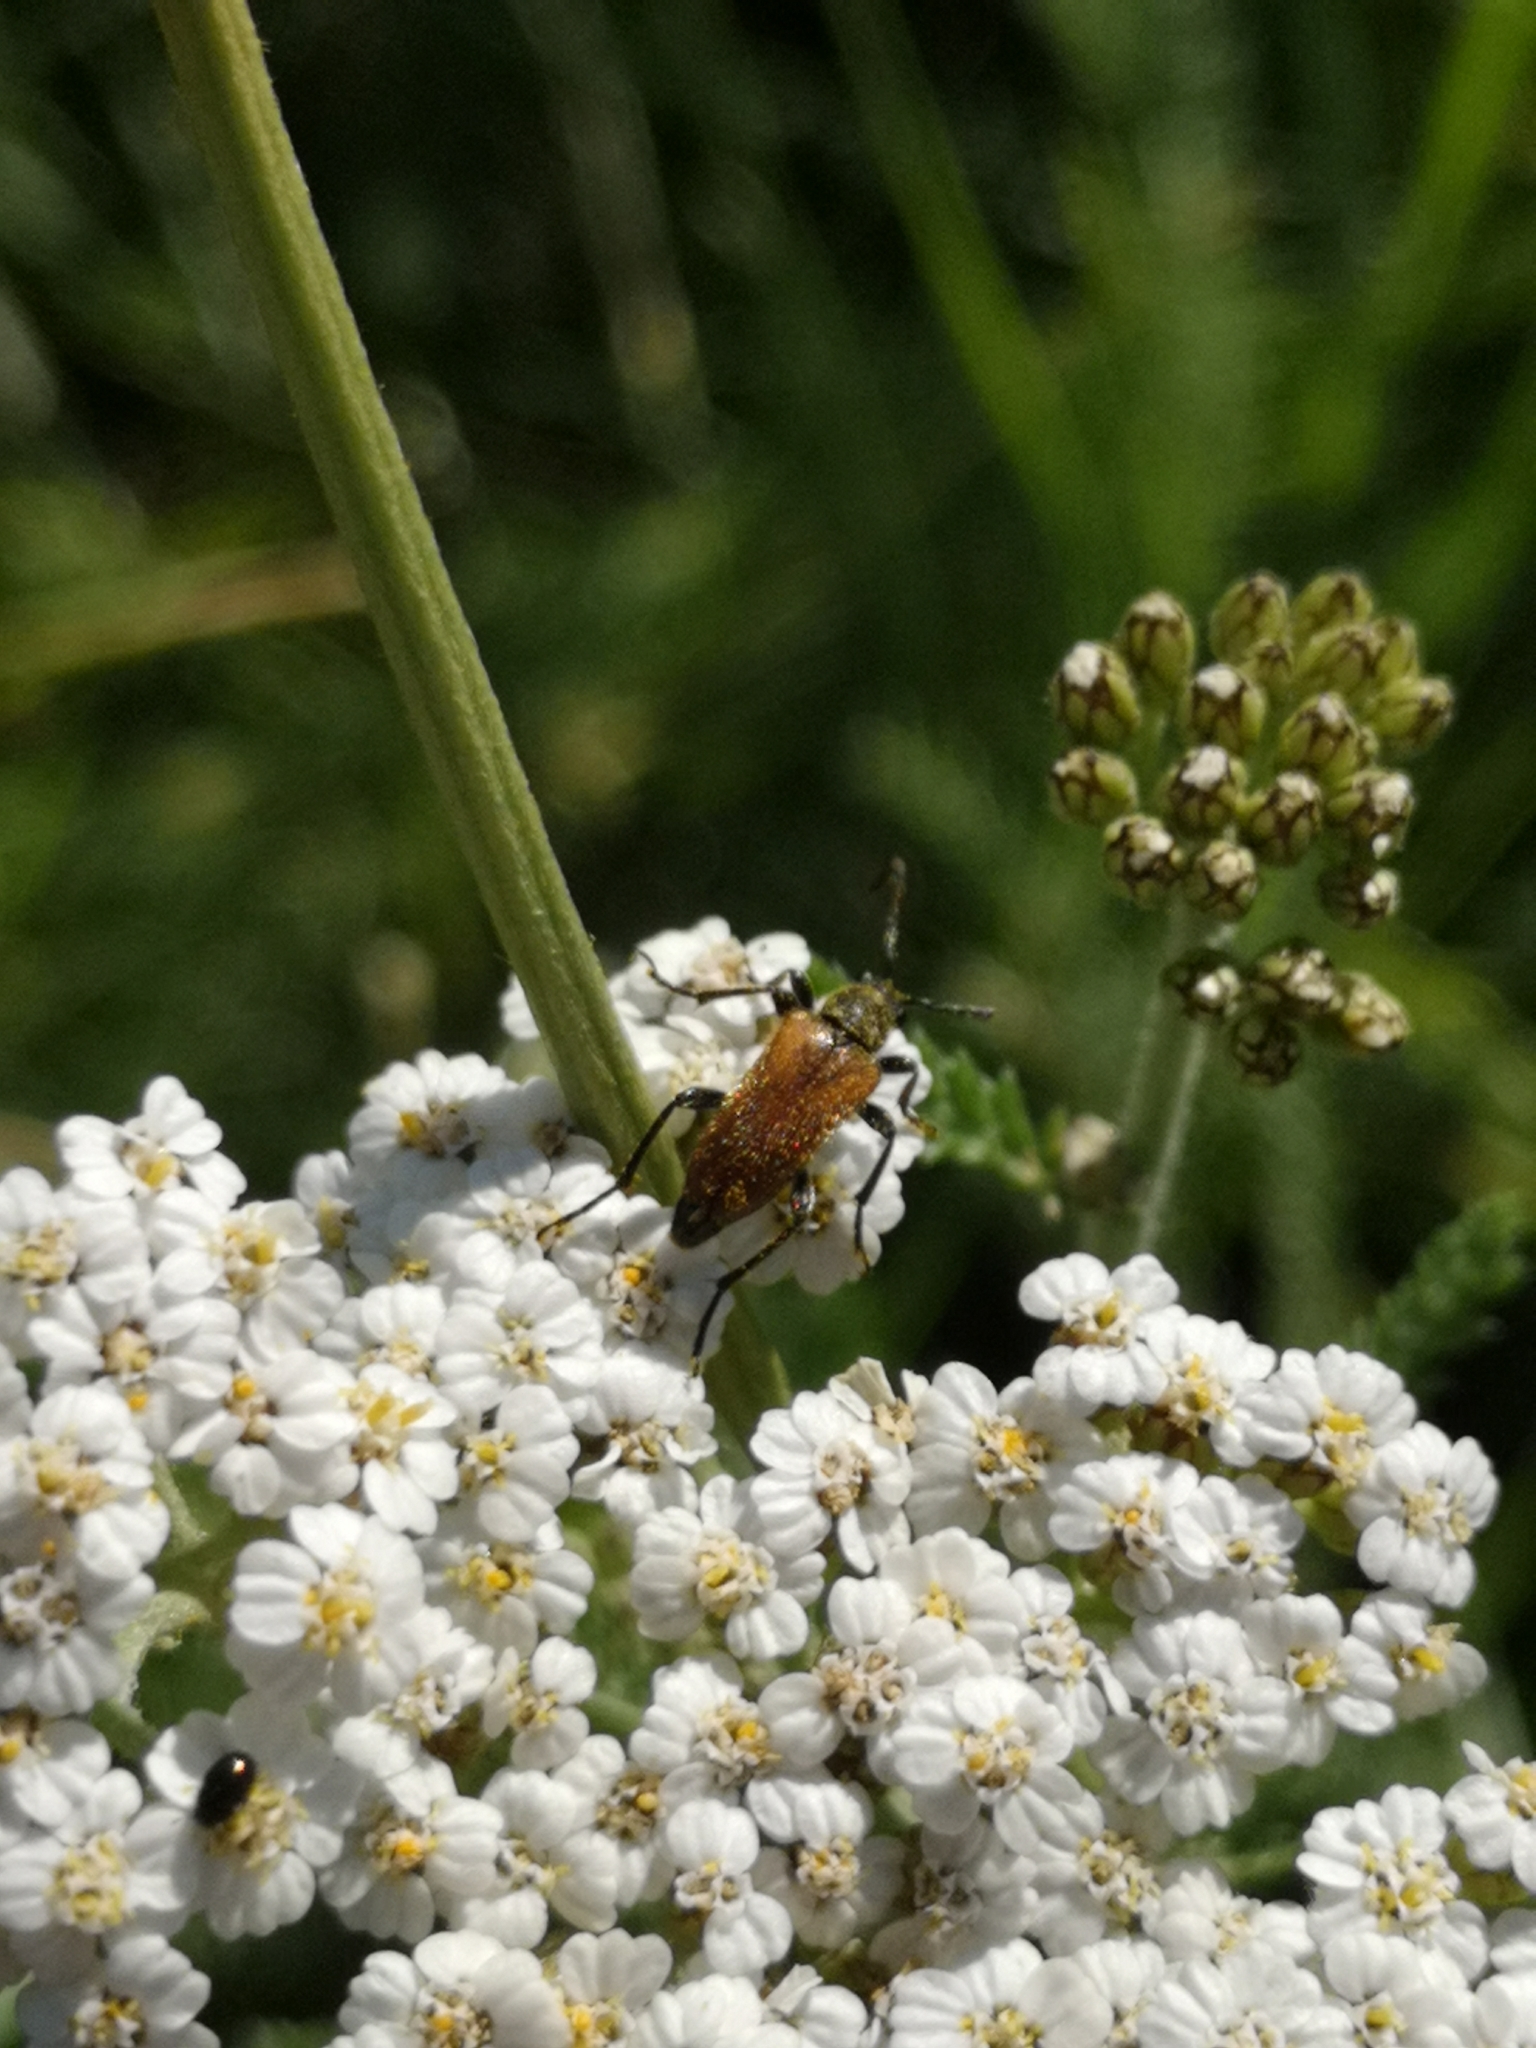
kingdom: Animalia
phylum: Arthropoda
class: Insecta
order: Coleoptera
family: Cerambycidae
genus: Pseudovadonia
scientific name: Pseudovadonia livida
